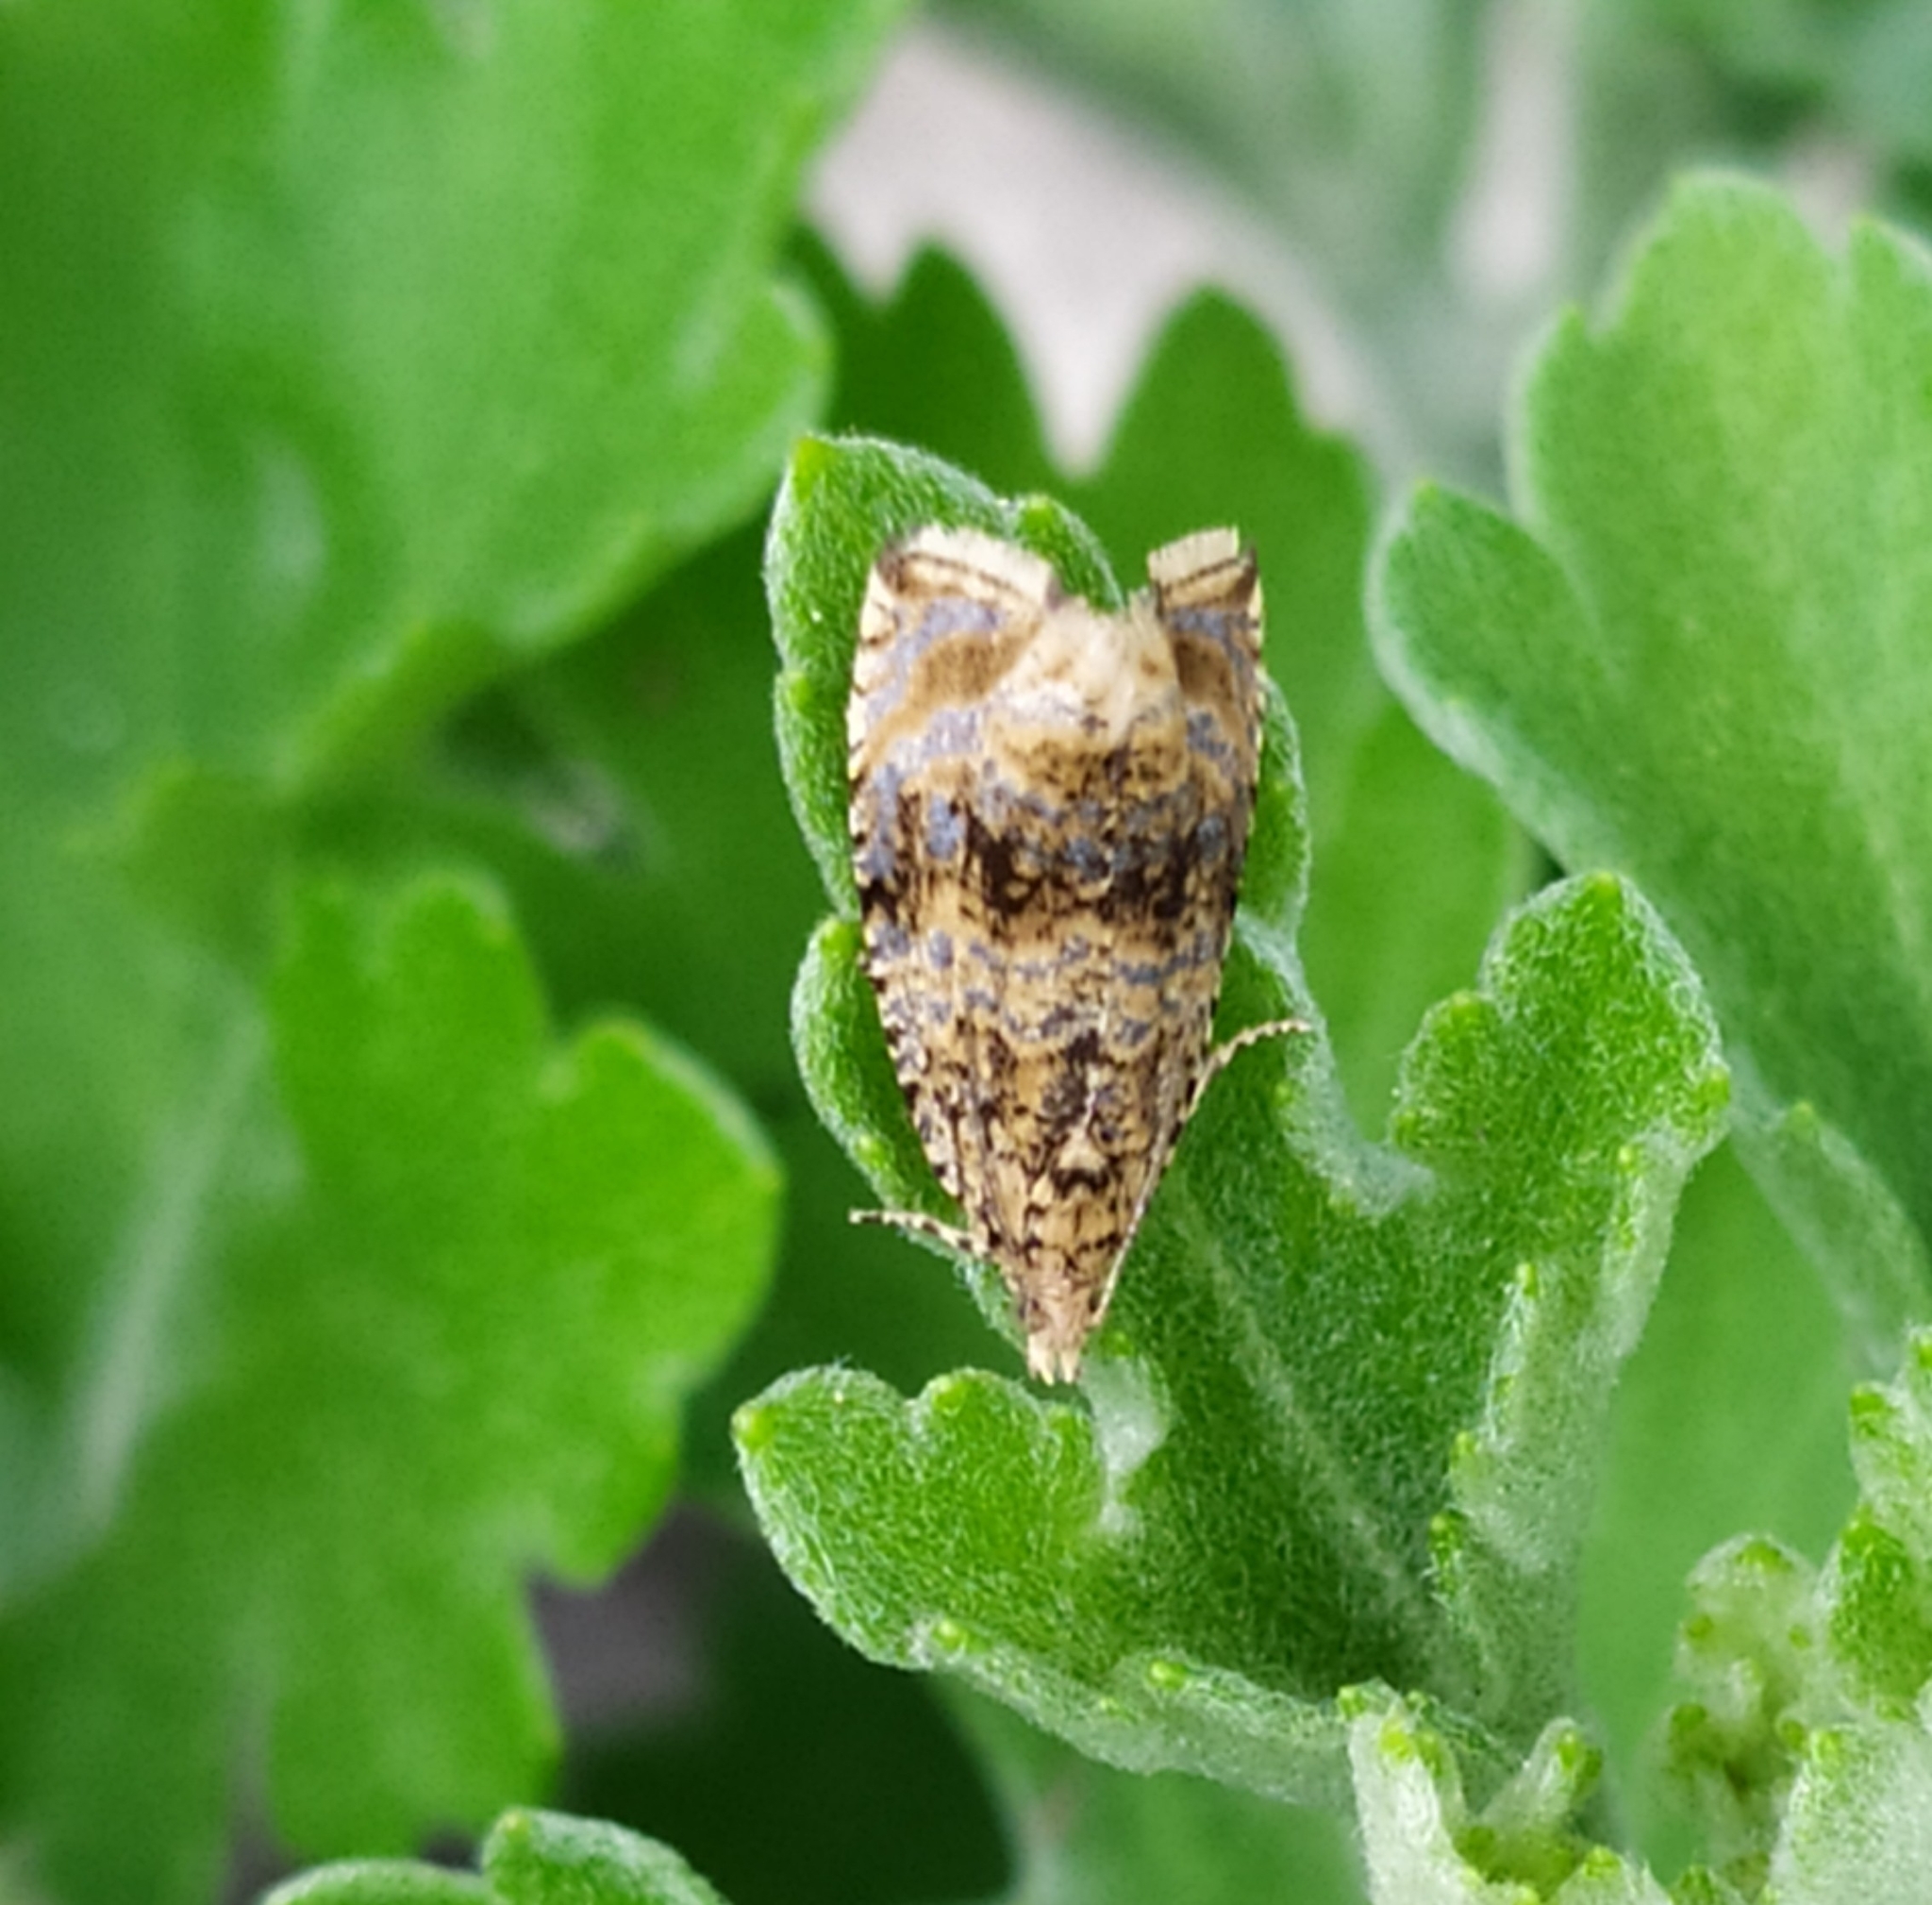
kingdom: Animalia
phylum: Arthropoda
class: Insecta
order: Lepidoptera
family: Tortricidae
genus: Syricoris
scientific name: Syricoris lacunana
